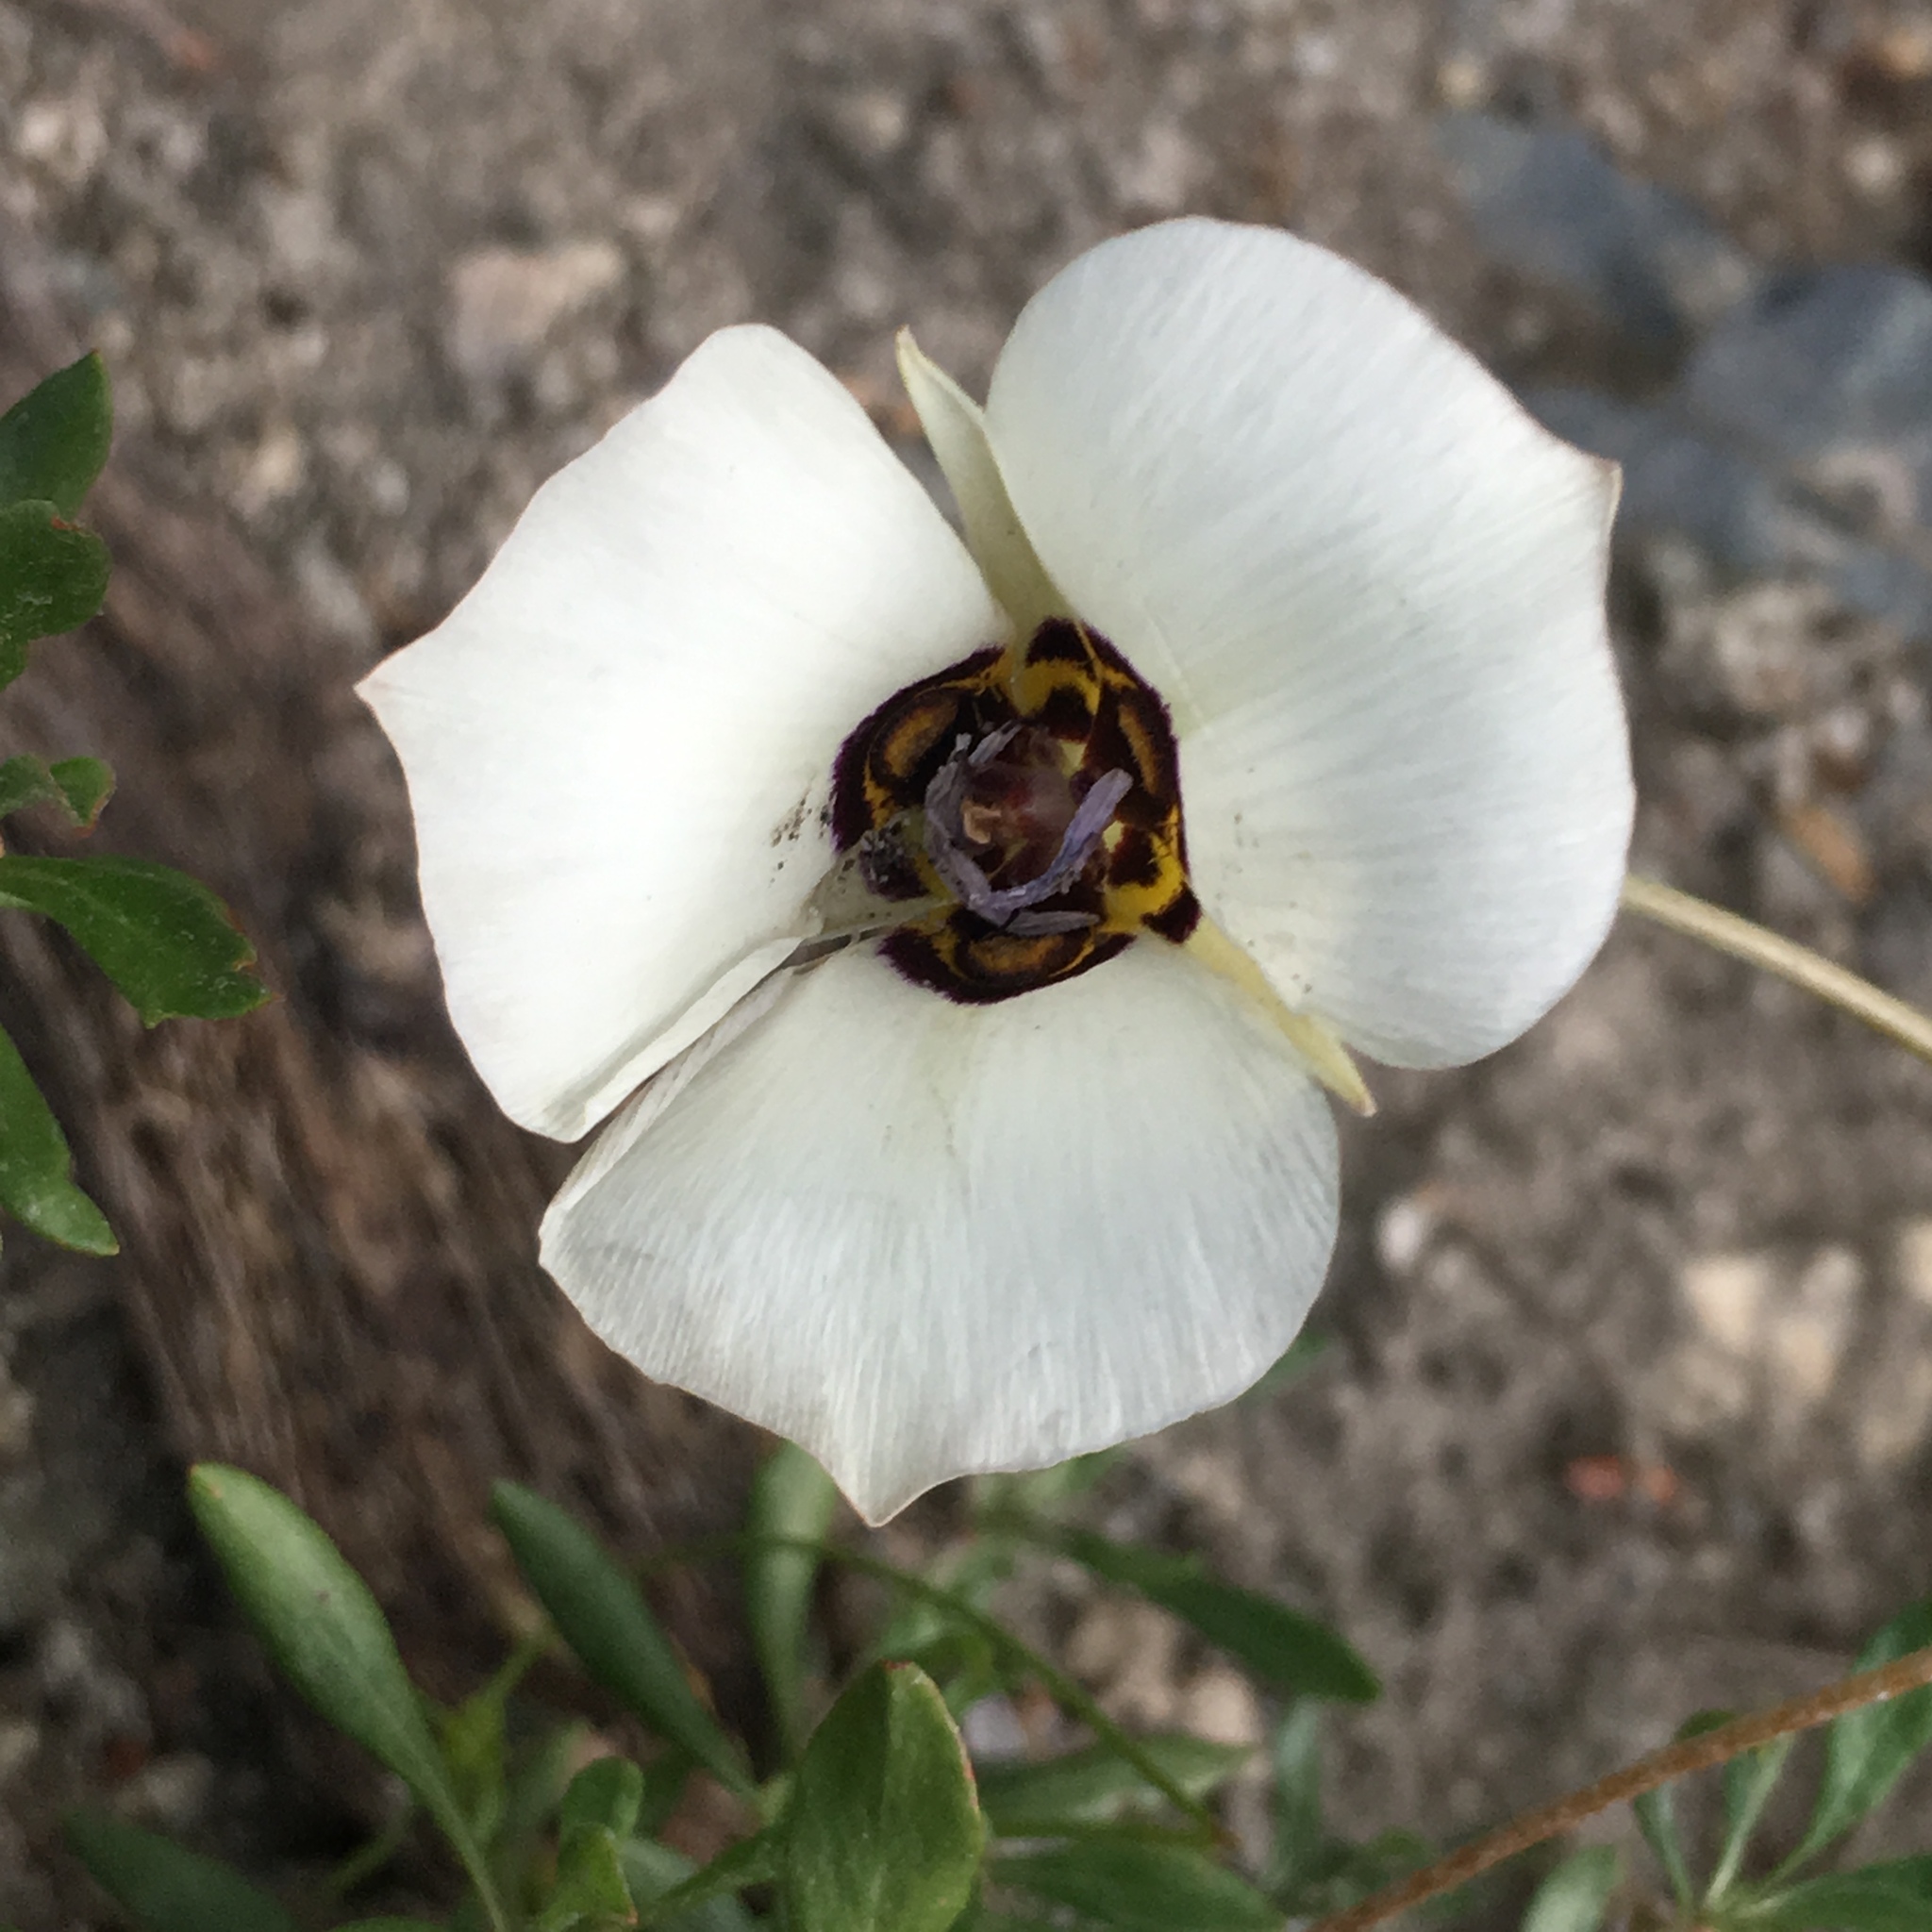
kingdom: Plantae
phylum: Tracheophyta
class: Liliopsida
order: Liliales
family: Liliaceae
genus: Calochortus
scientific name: Calochortus bruneaunis
